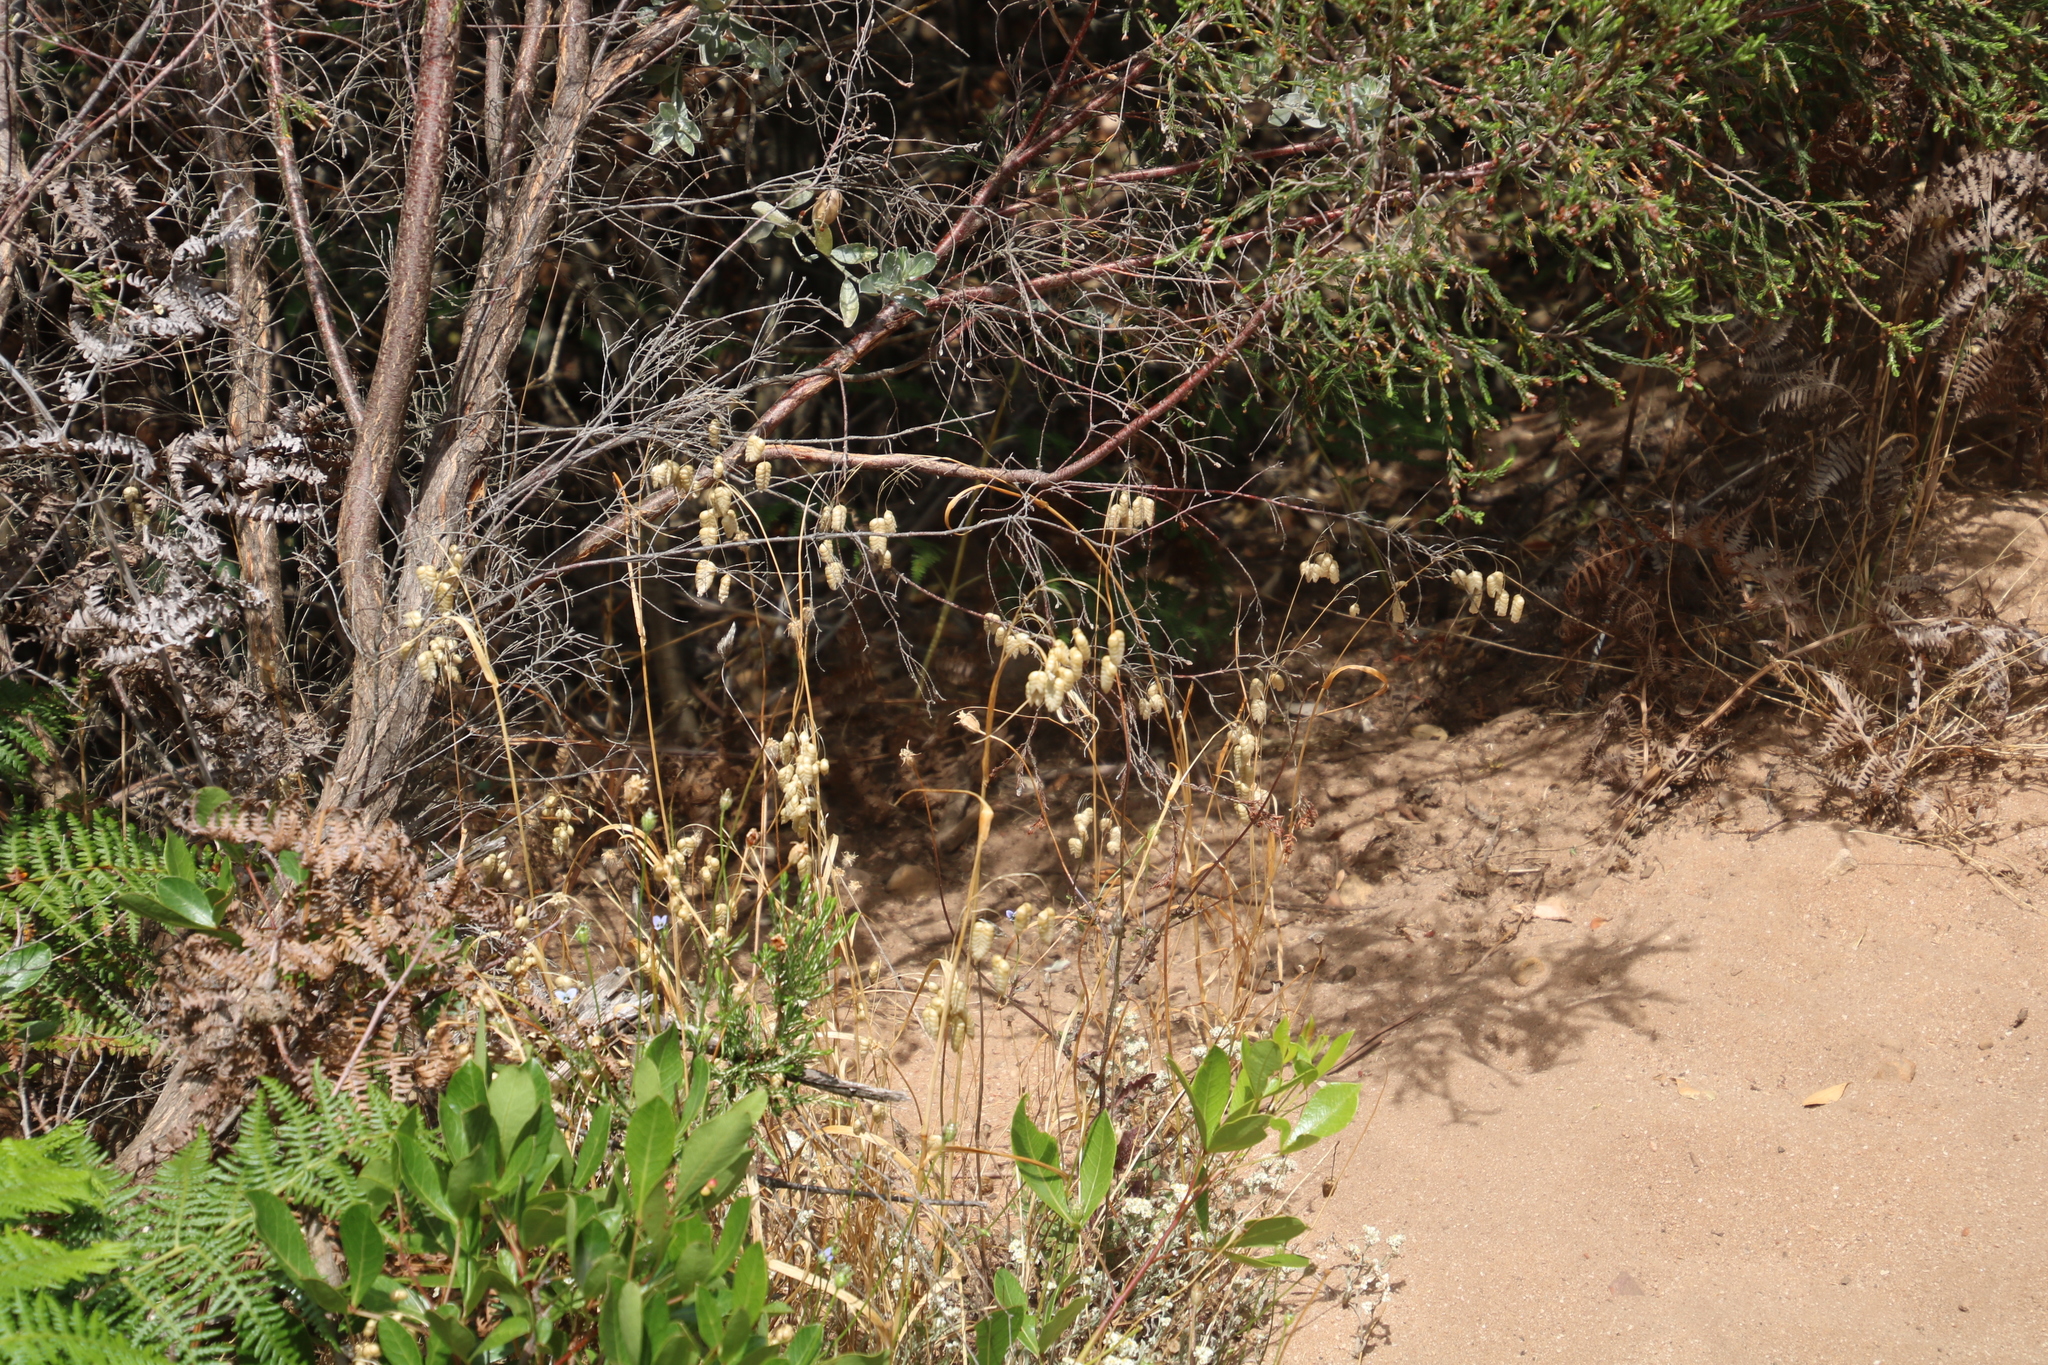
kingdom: Plantae
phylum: Tracheophyta
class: Liliopsida
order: Poales
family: Poaceae
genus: Briza
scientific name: Briza maxima
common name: Big quakinggrass
